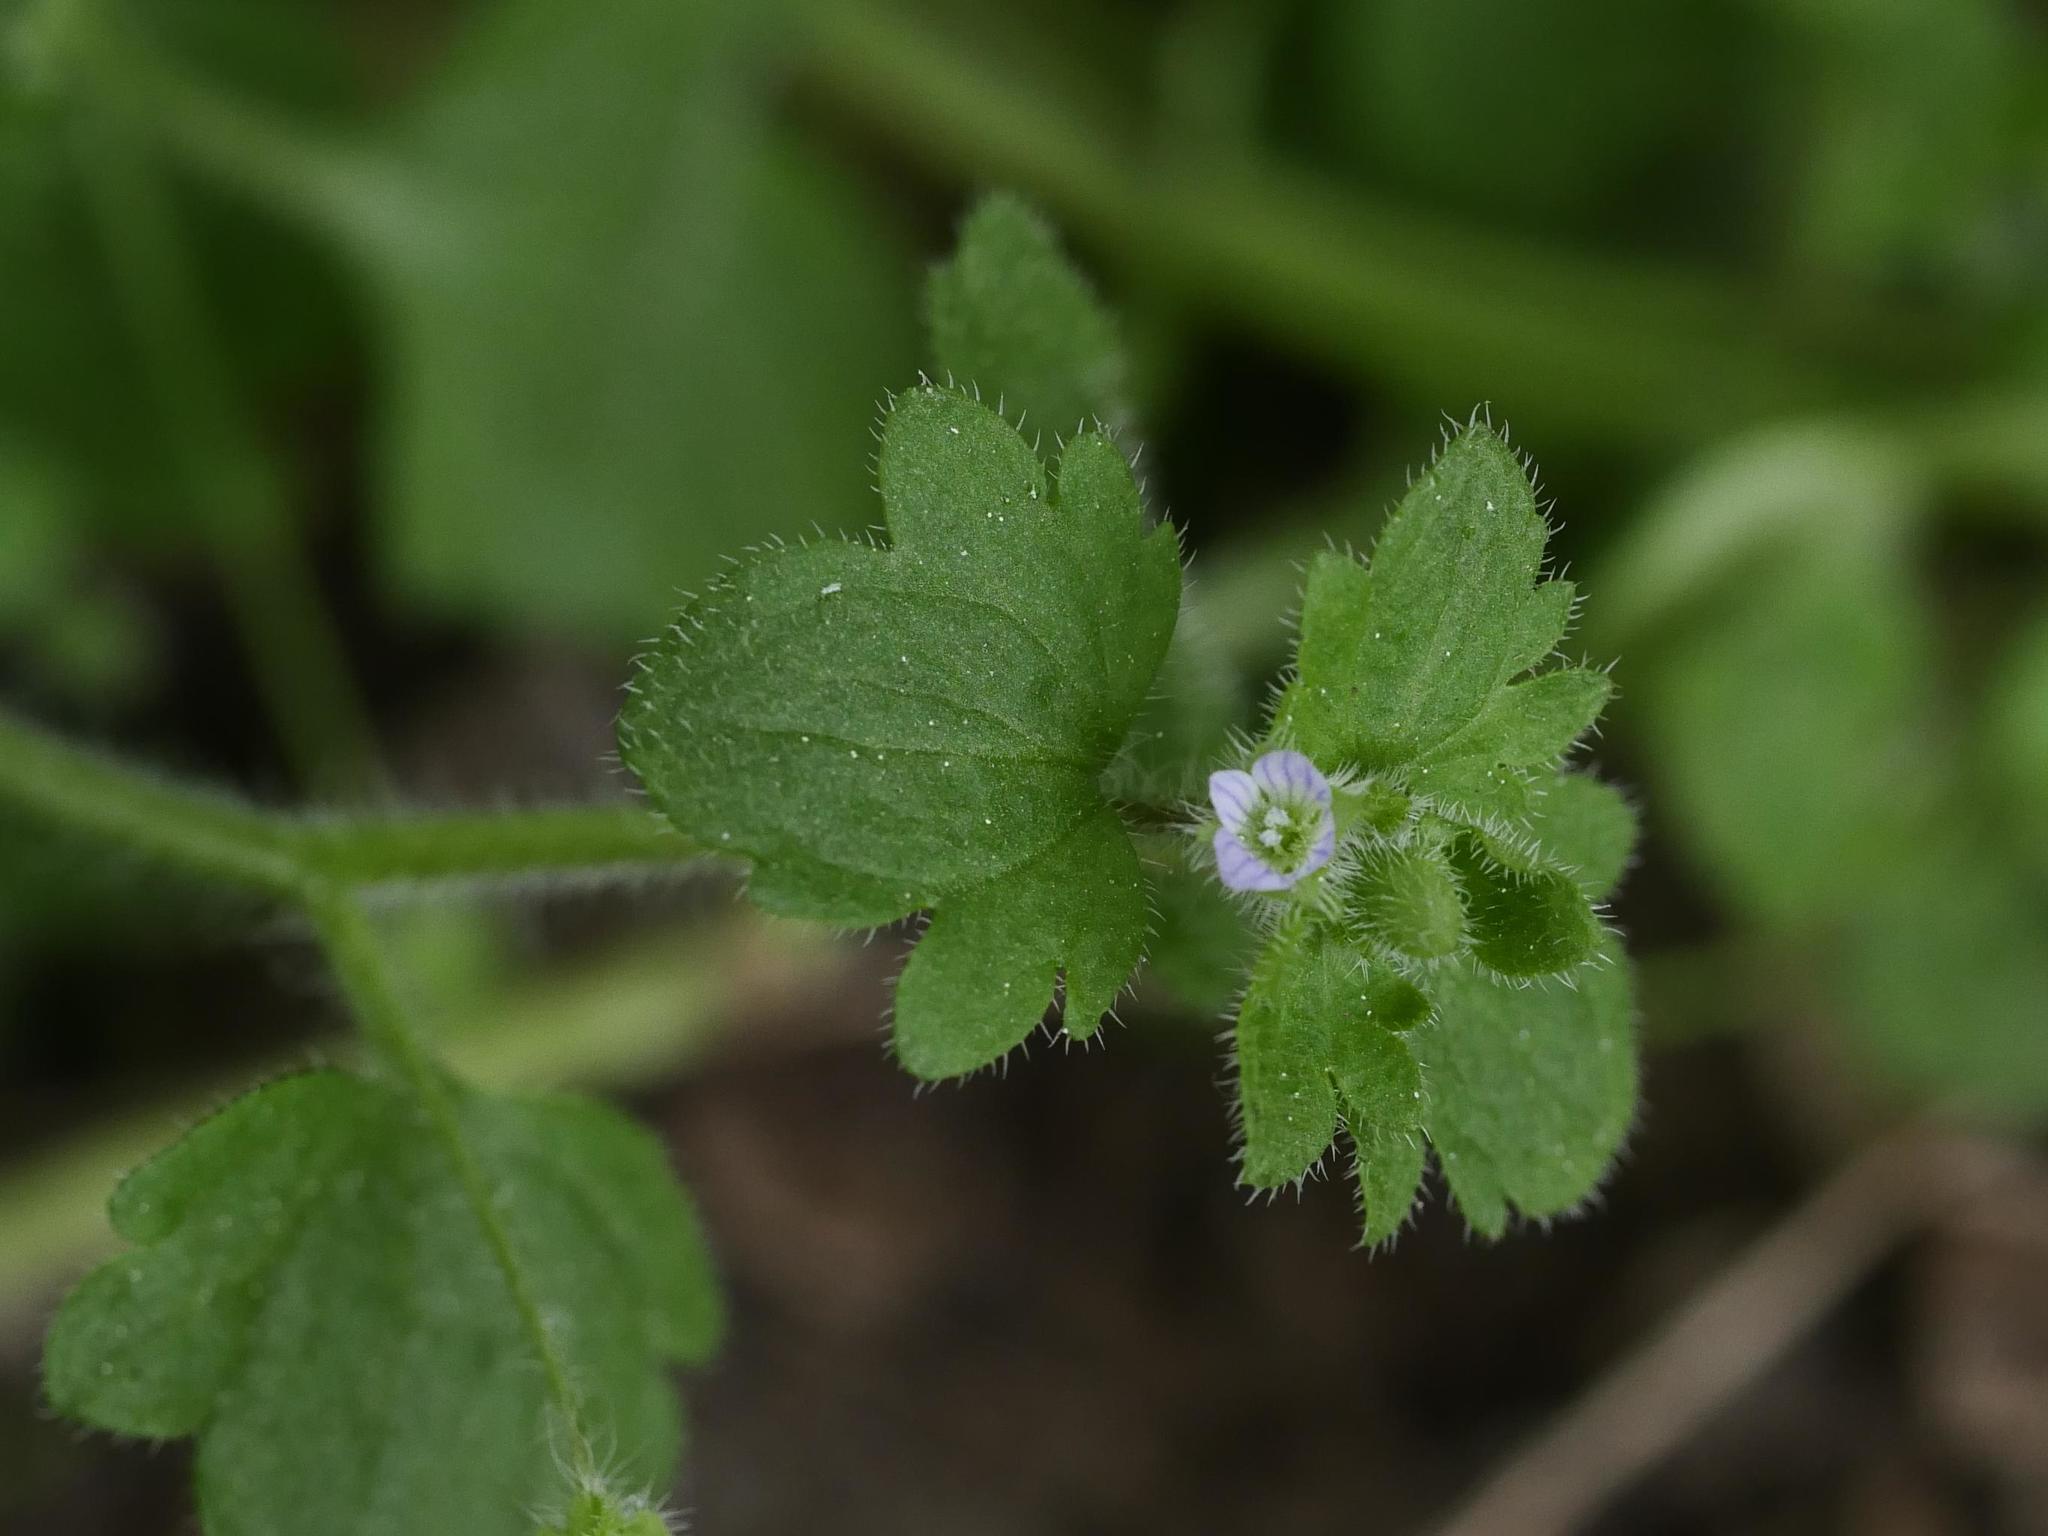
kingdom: Plantae
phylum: Tracheophyta
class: Magnoliopsida
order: Lamiales
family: Plantaginaceae
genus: Veronica
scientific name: Veronica sublobata
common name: False ivy-leaved speedwell
